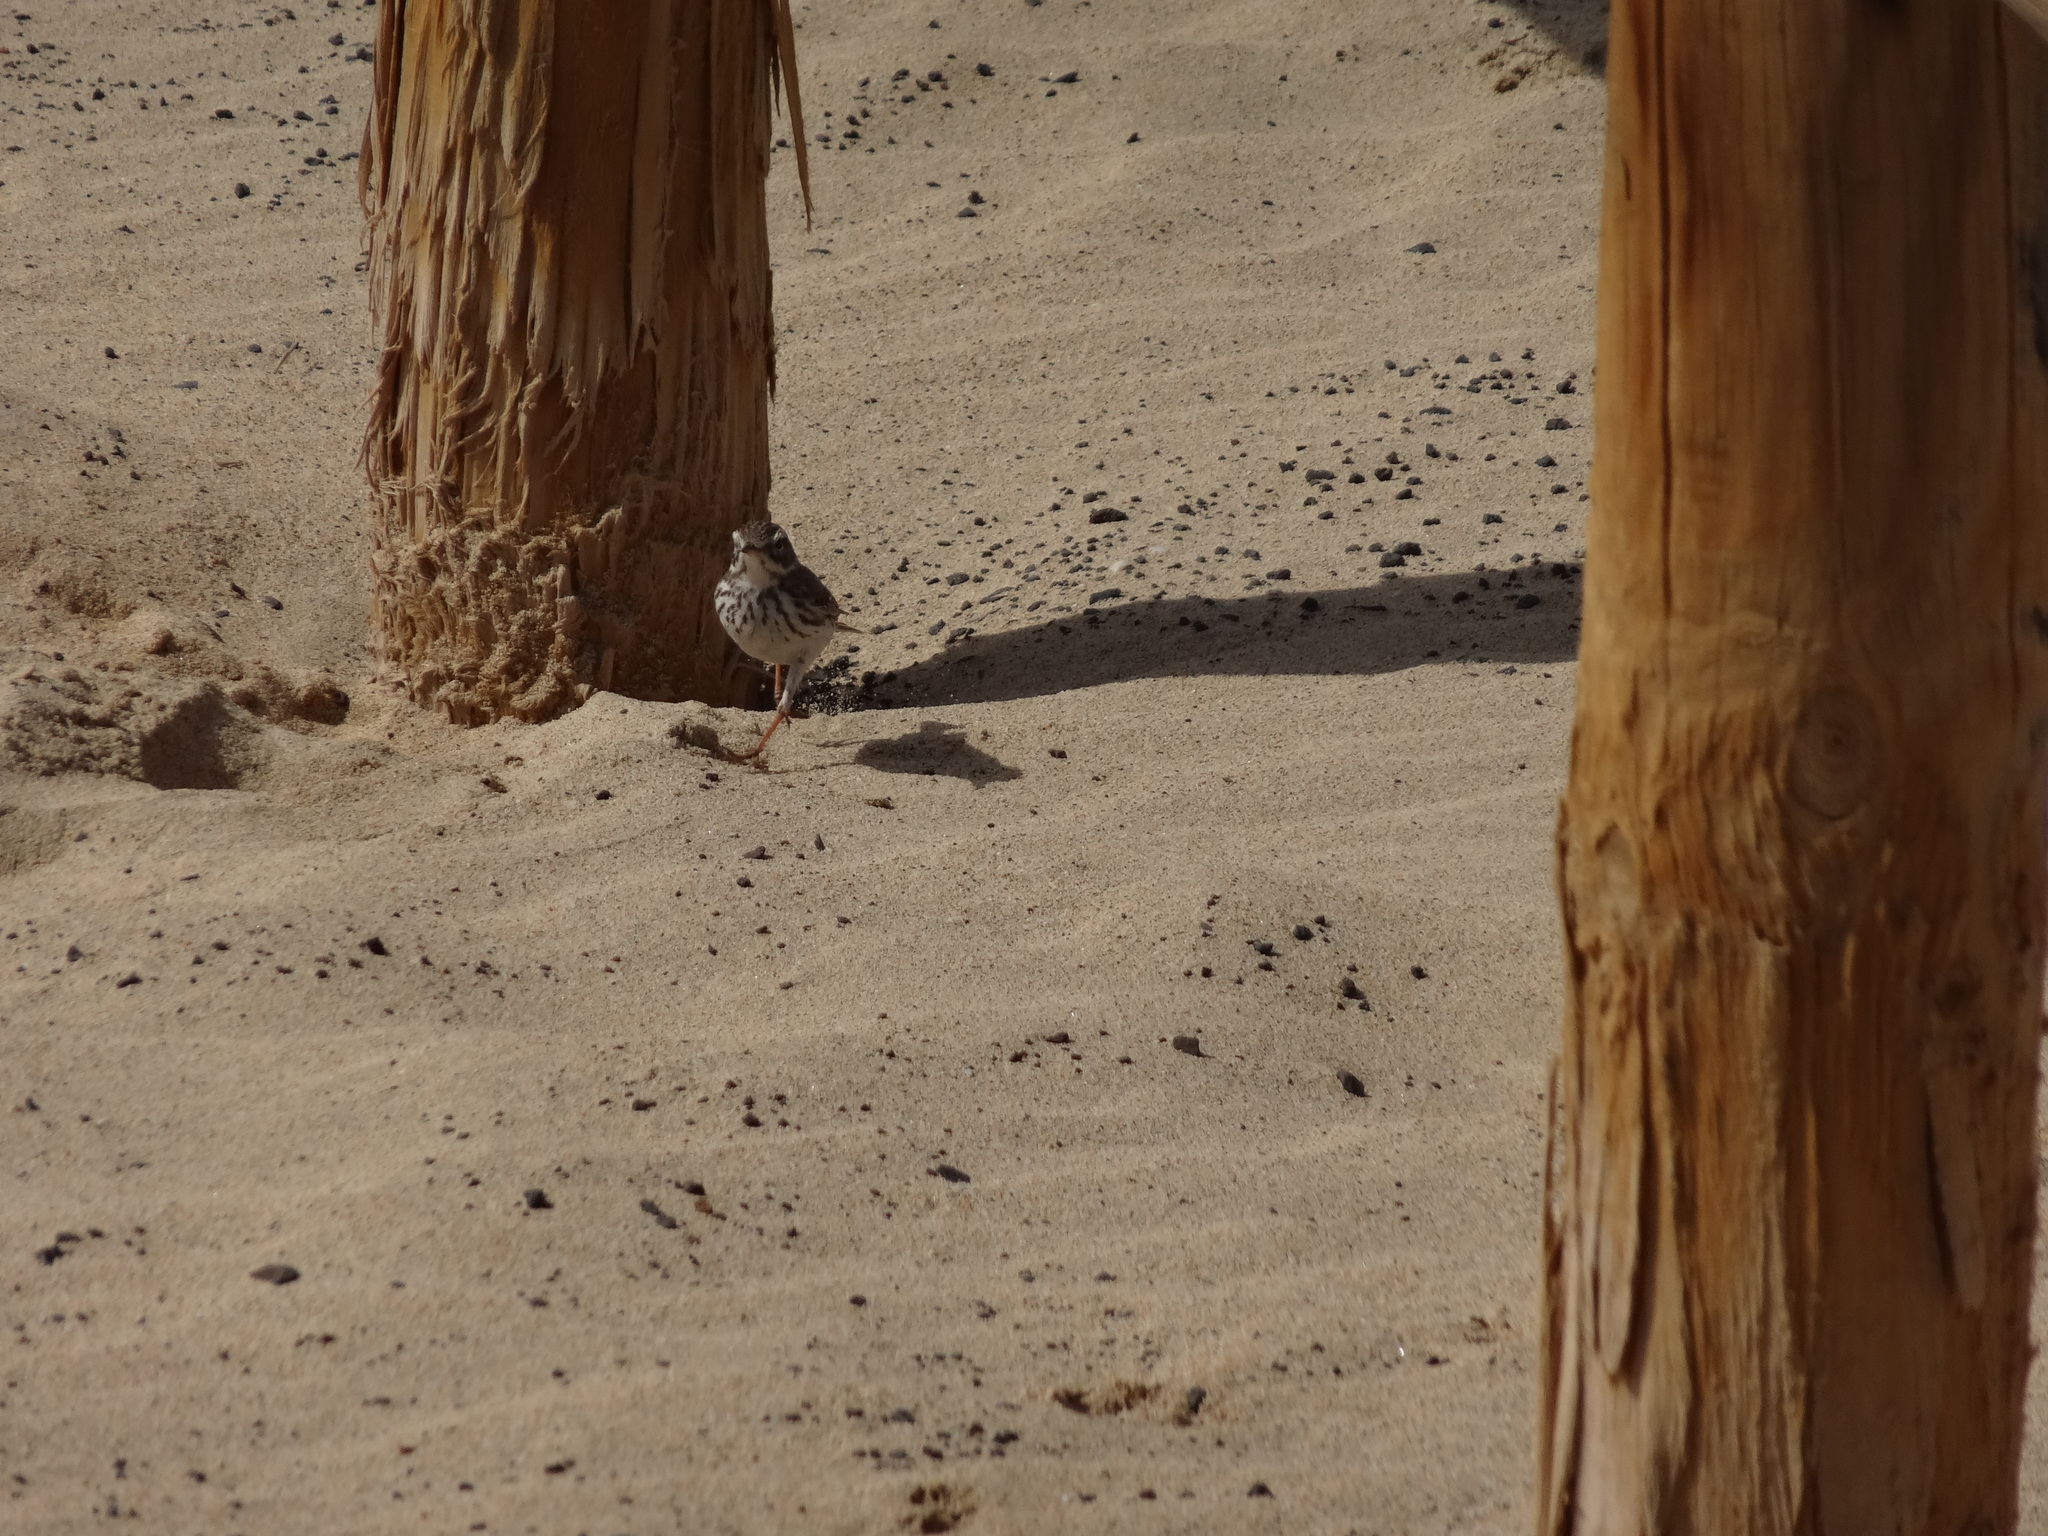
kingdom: Animalia
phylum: Chordata
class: Aves
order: Passeriformes
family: Motacillidae
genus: Anthus
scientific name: Anthus berthelotii
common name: Berthelot's pipit
